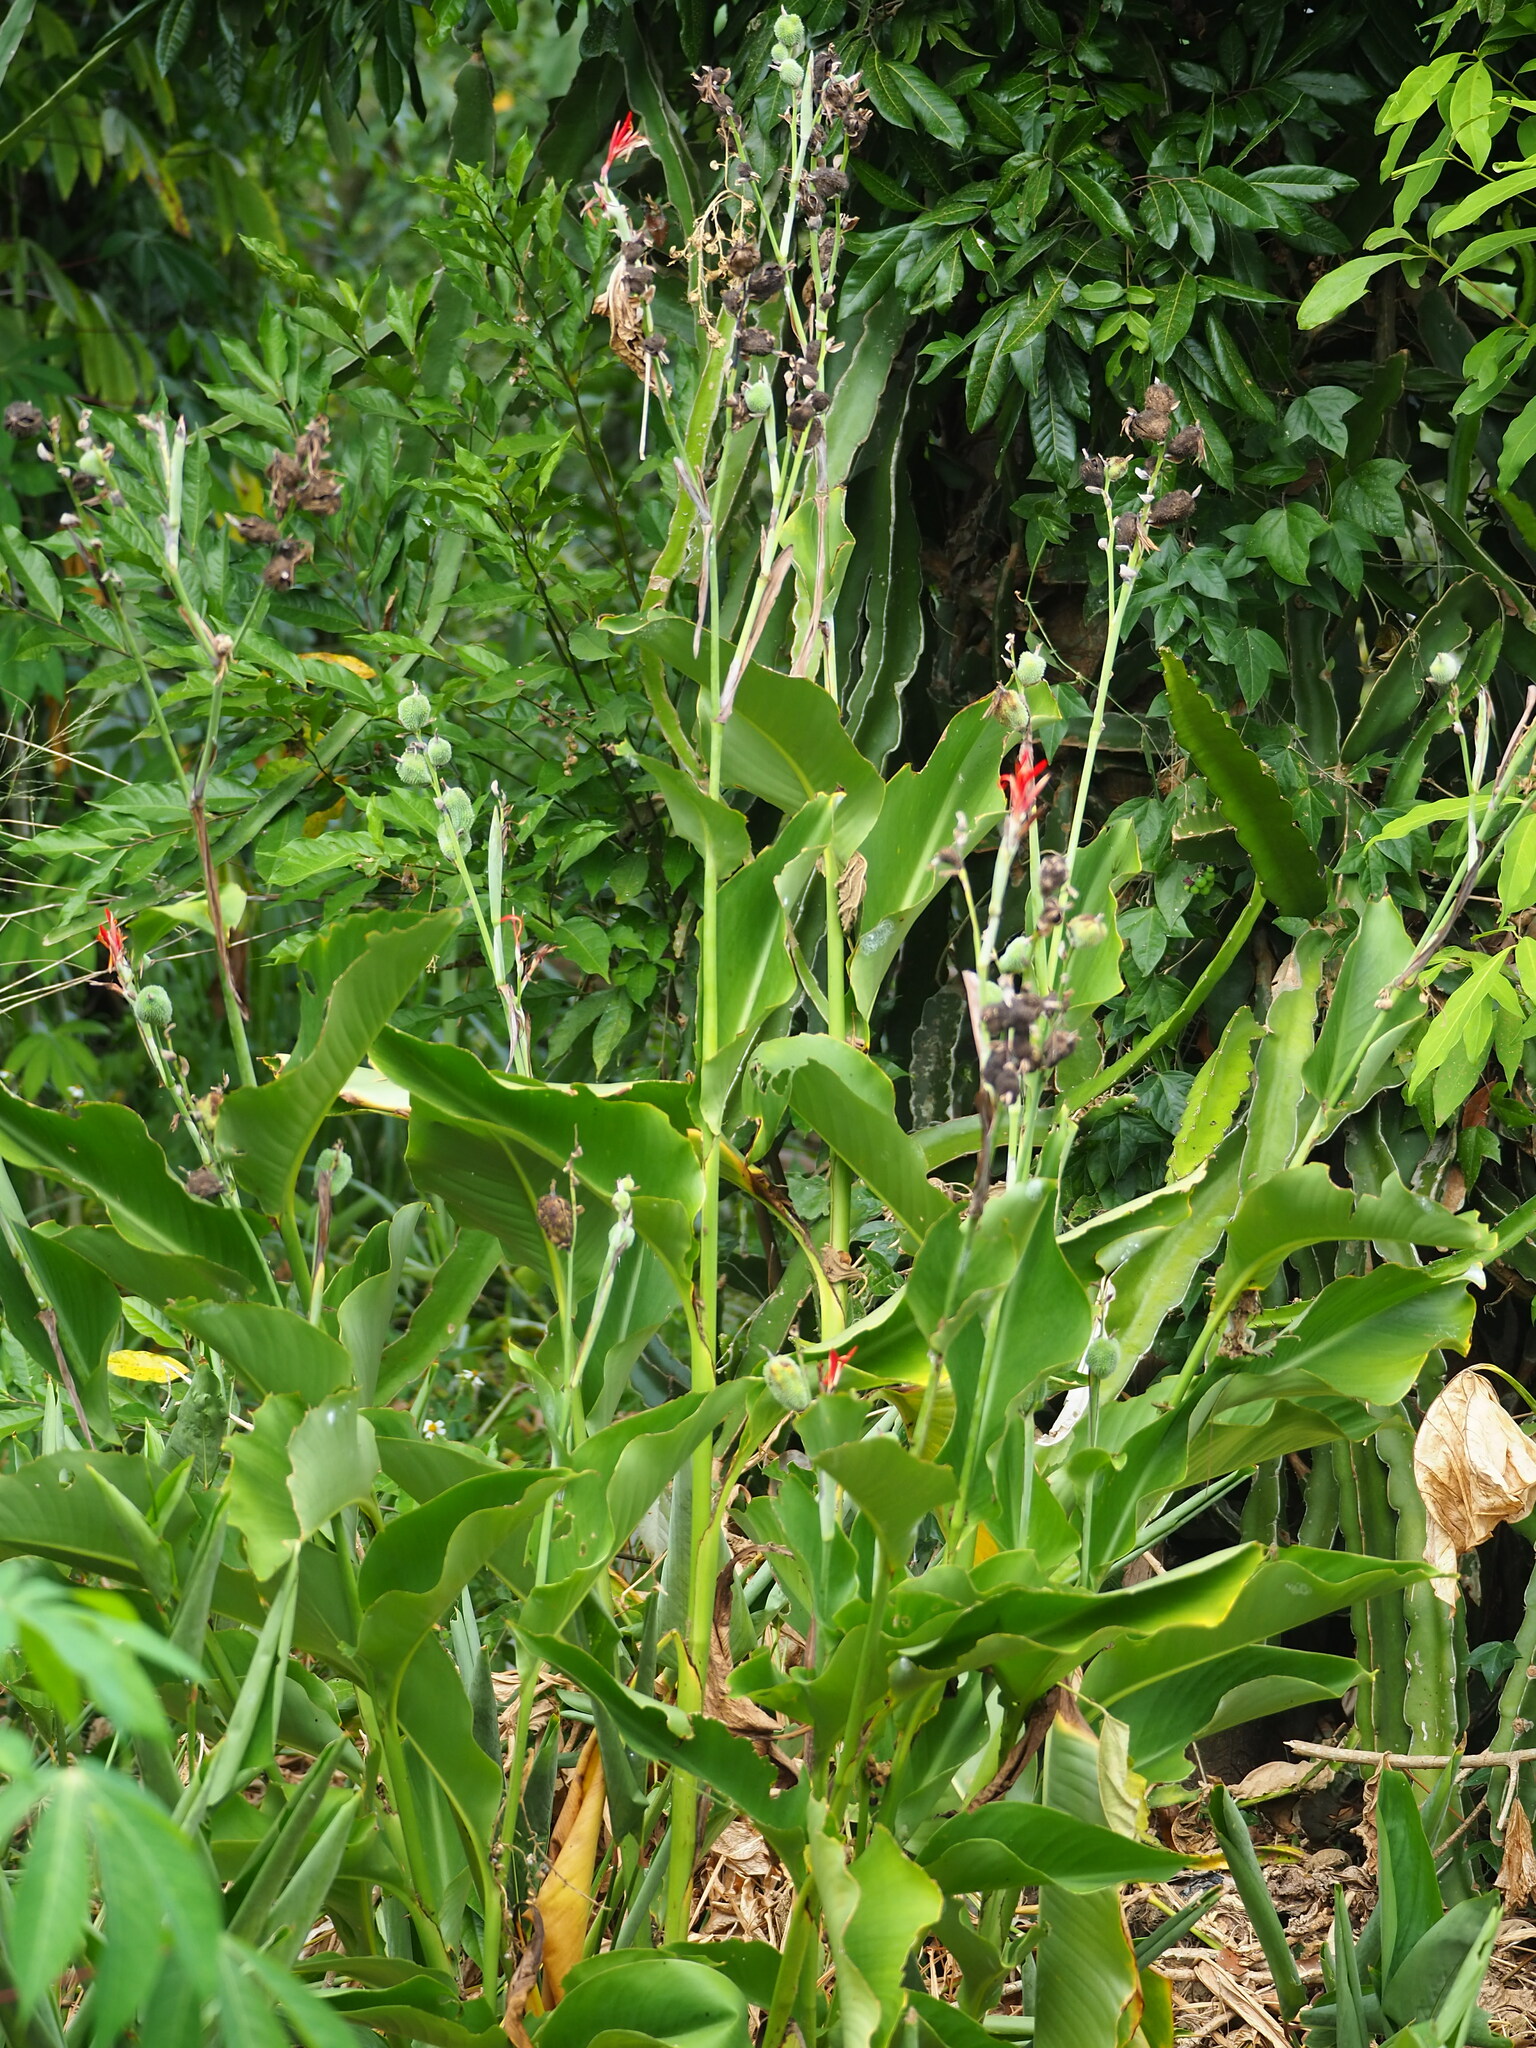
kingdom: Plantae
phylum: Tracheophyta
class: Liliopsida
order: Zingiberales
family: Cannaceae
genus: Canna
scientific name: Canna indica
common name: Indian shot
